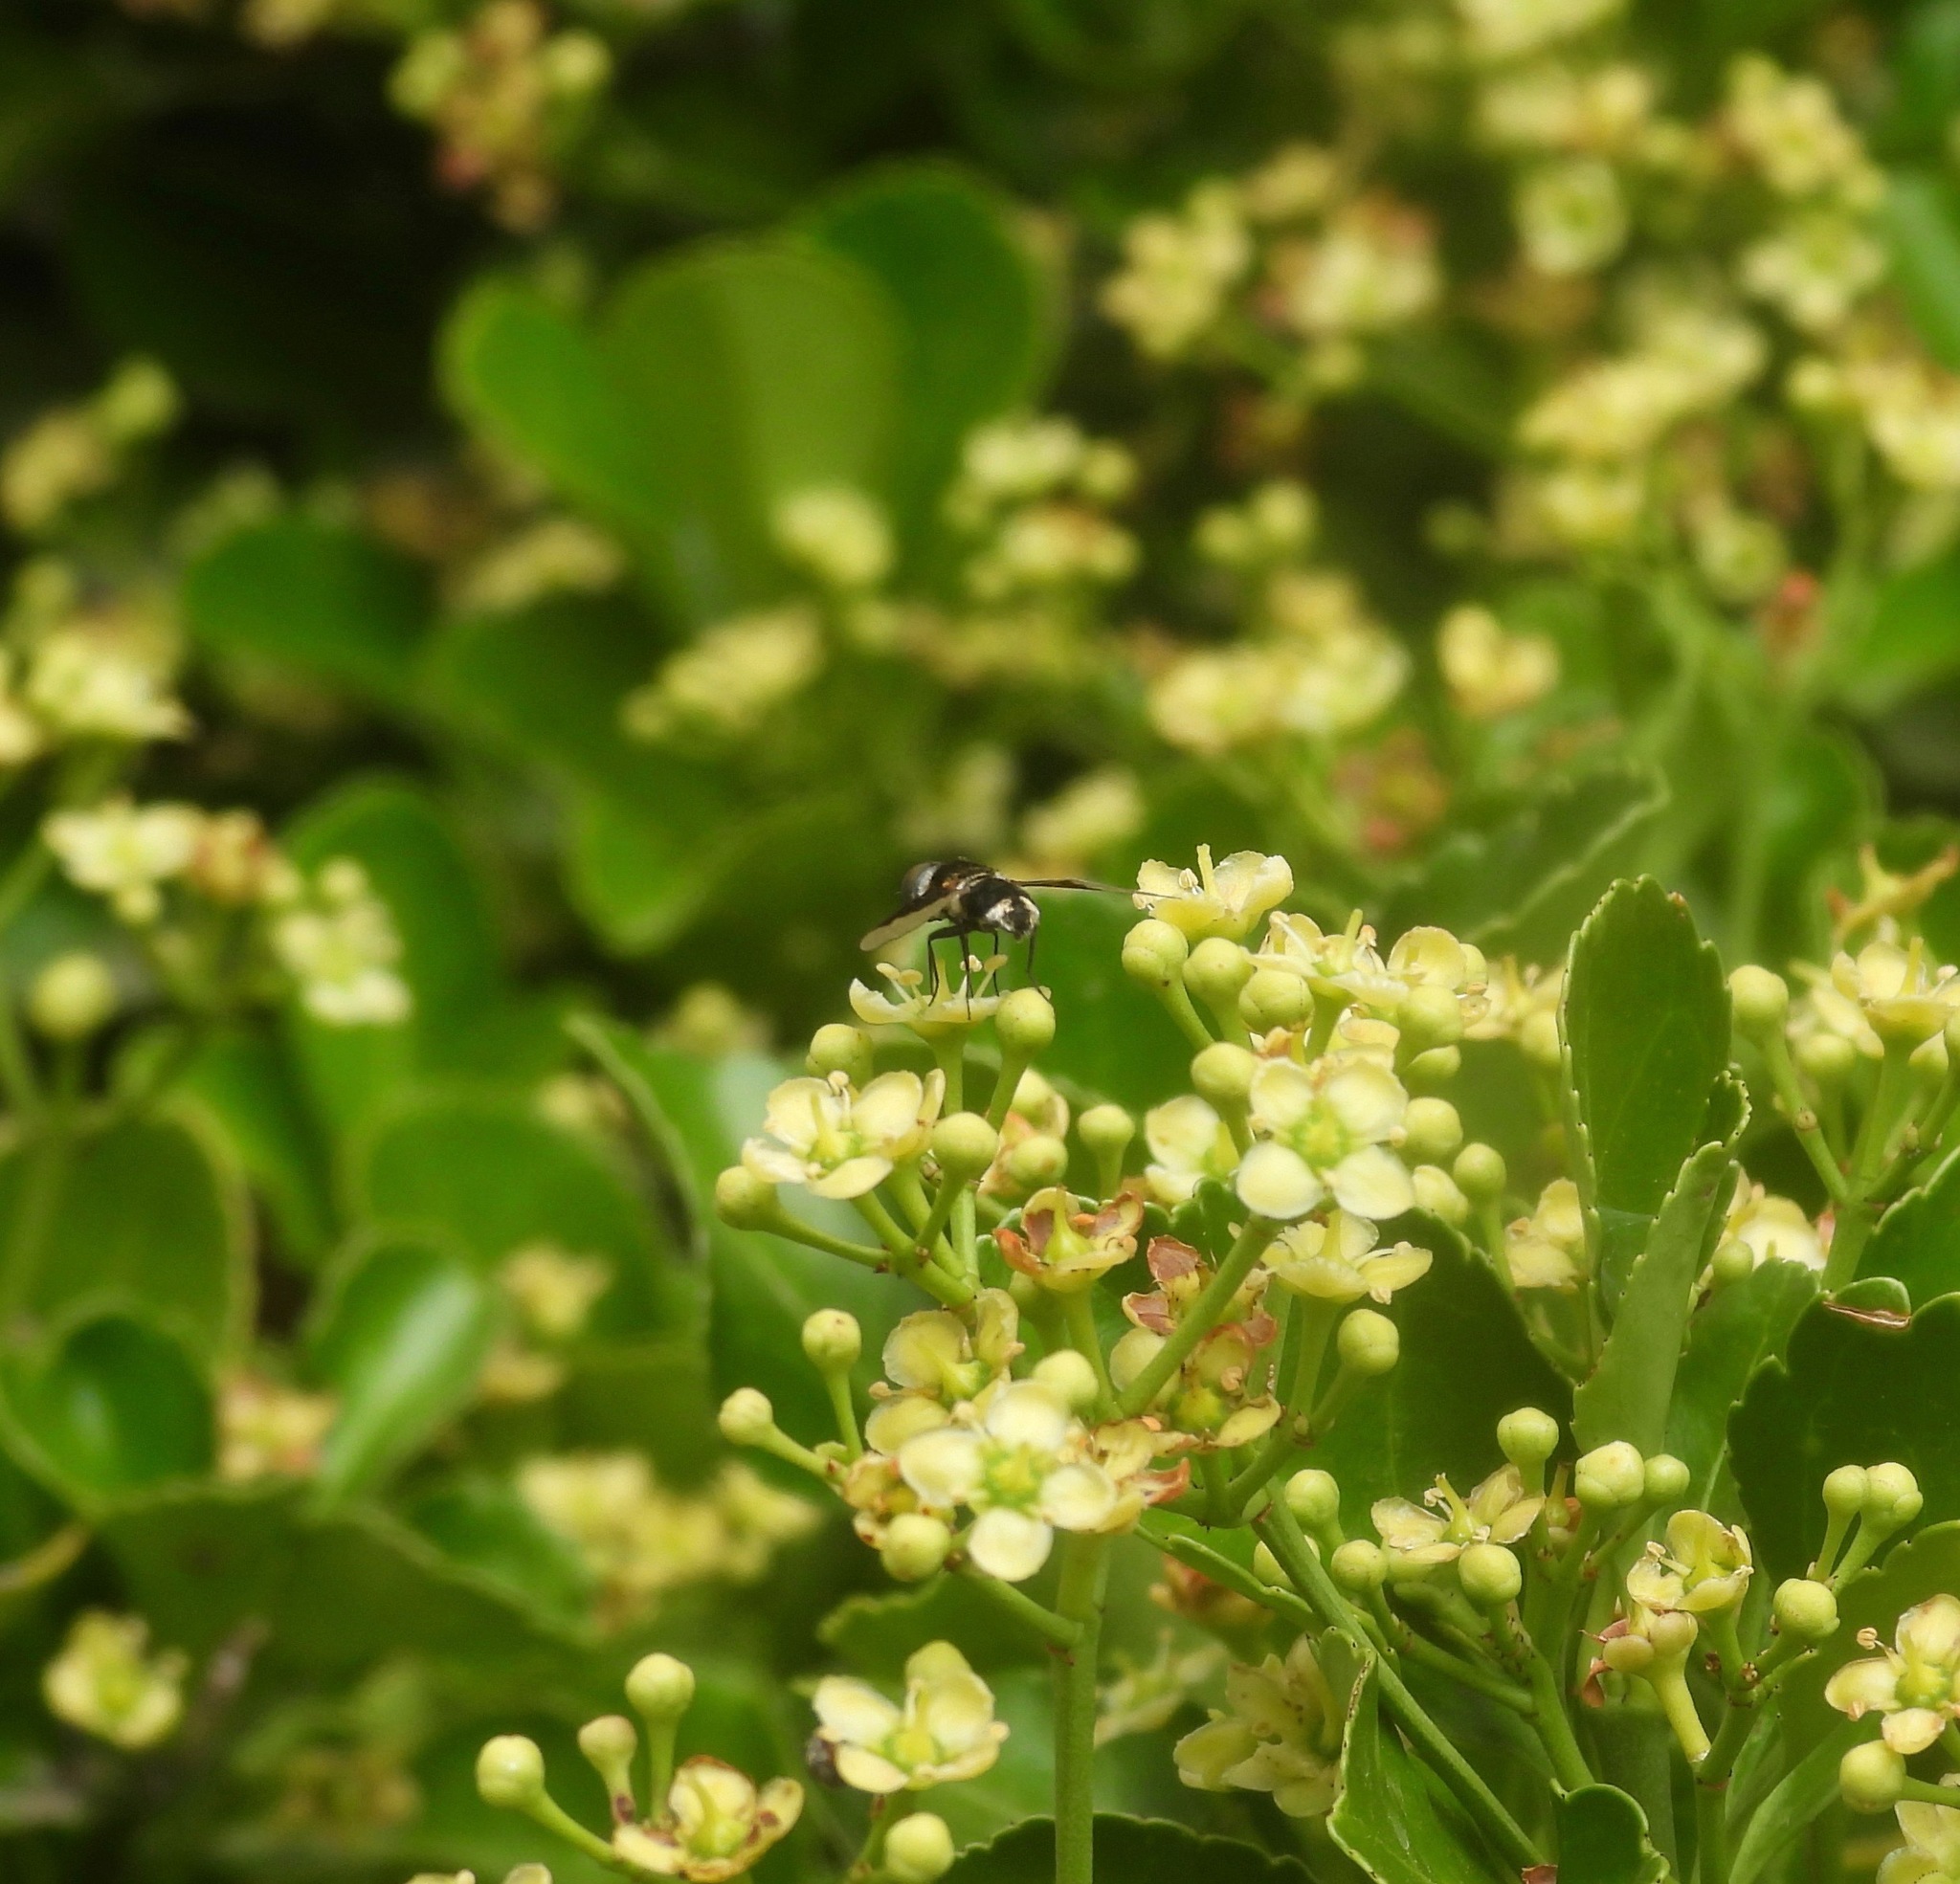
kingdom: Animalia
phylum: Arthropoda
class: Insecta
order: Diptera
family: Bombyliidae
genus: Ins
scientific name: Ins curtus
